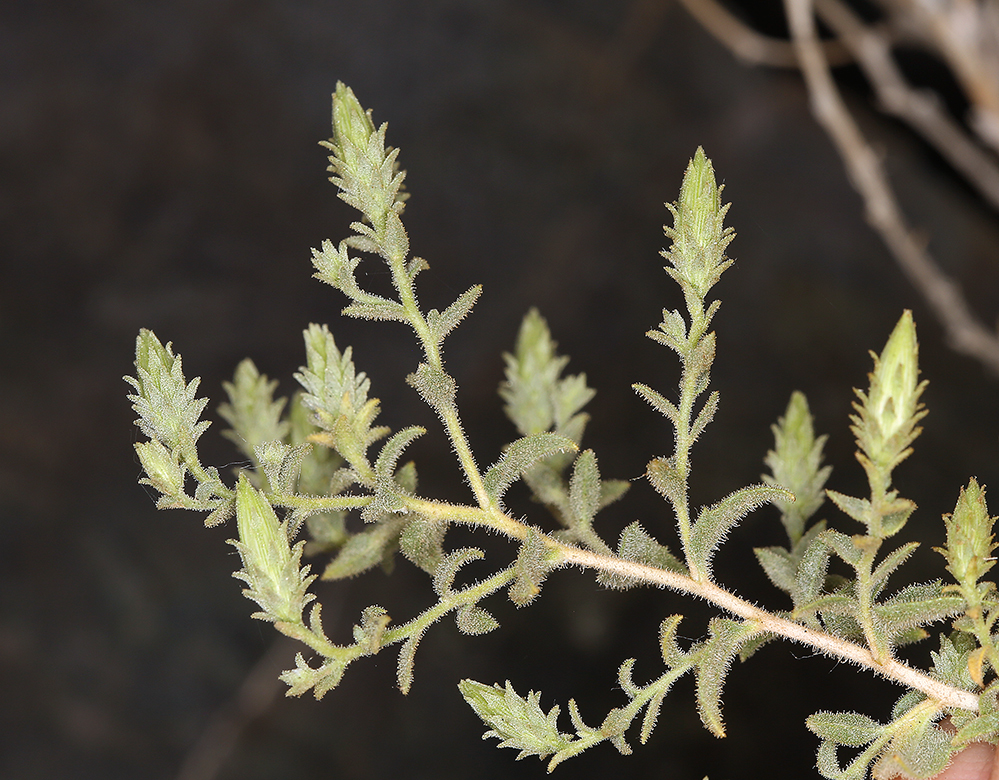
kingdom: Plantae
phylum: Tracheophyta
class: Magnoliopsida
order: Asterales
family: Asteraceae
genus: Brickellia
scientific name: Brickellia microphylla
